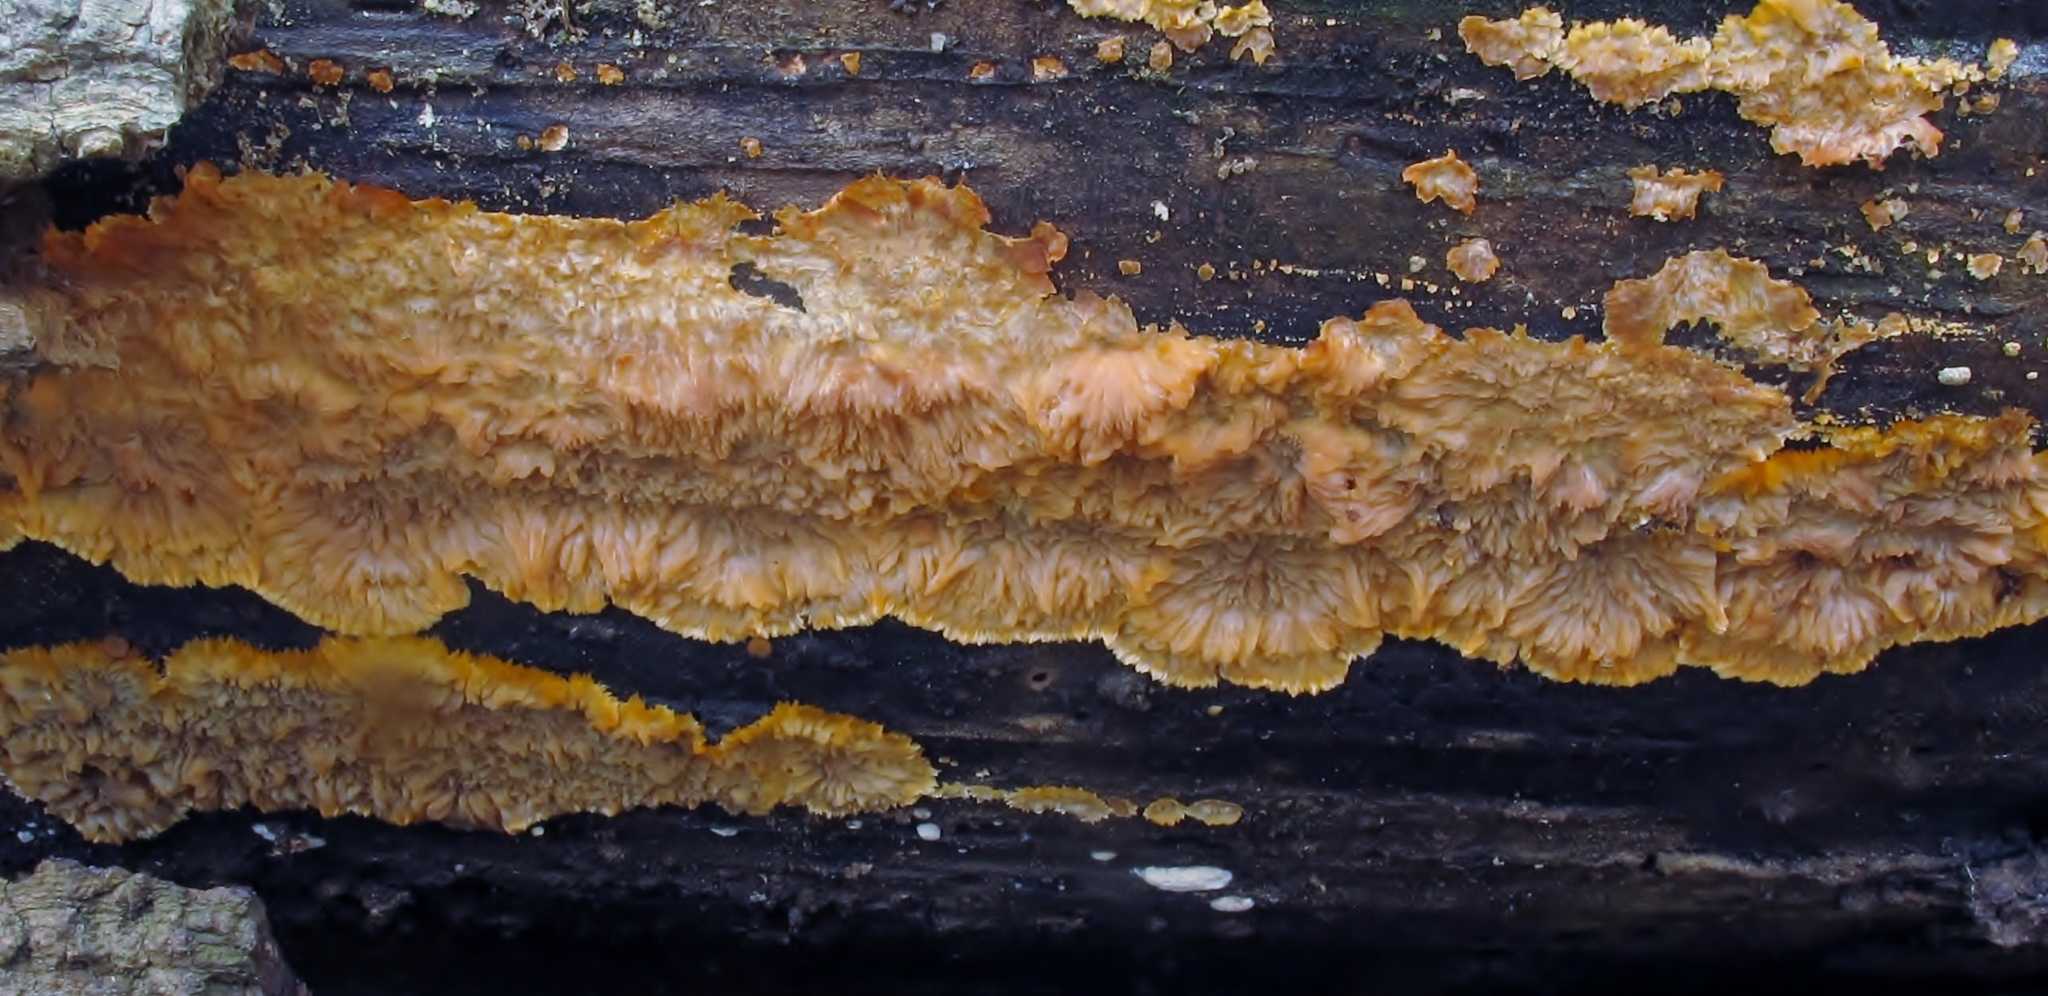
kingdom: Fungi
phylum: Basidiomycota
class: Agaricomycetes
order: Polyporales
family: Meruliaceae
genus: Phlebia
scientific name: Phlebia radiata
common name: Wrinkled crust
